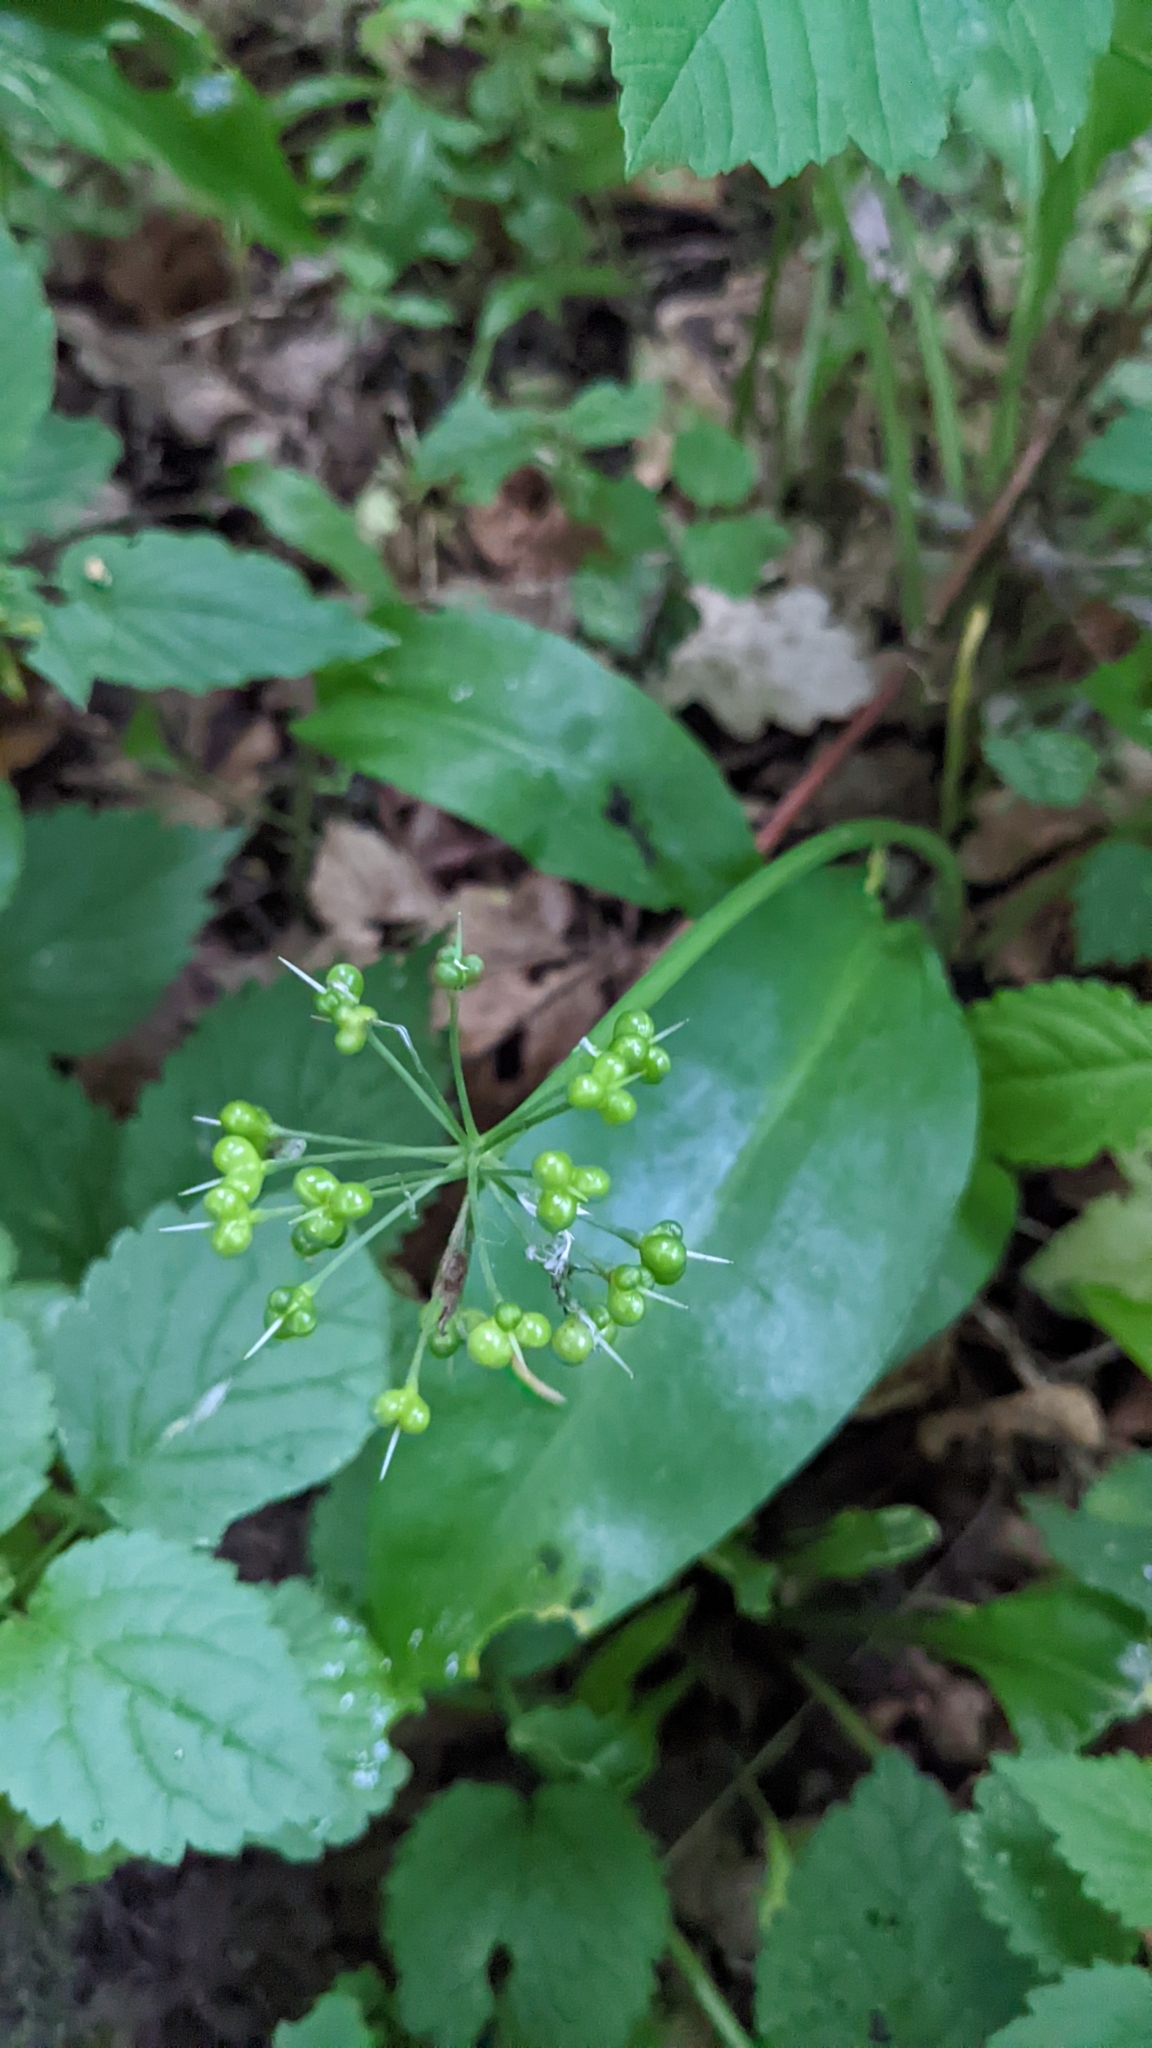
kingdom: Plantae
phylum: Tracheophyta
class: Liliopsida
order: Asparagales
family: Amaryllidaceae
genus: Allium
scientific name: Allium ursinum
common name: Ramsons
